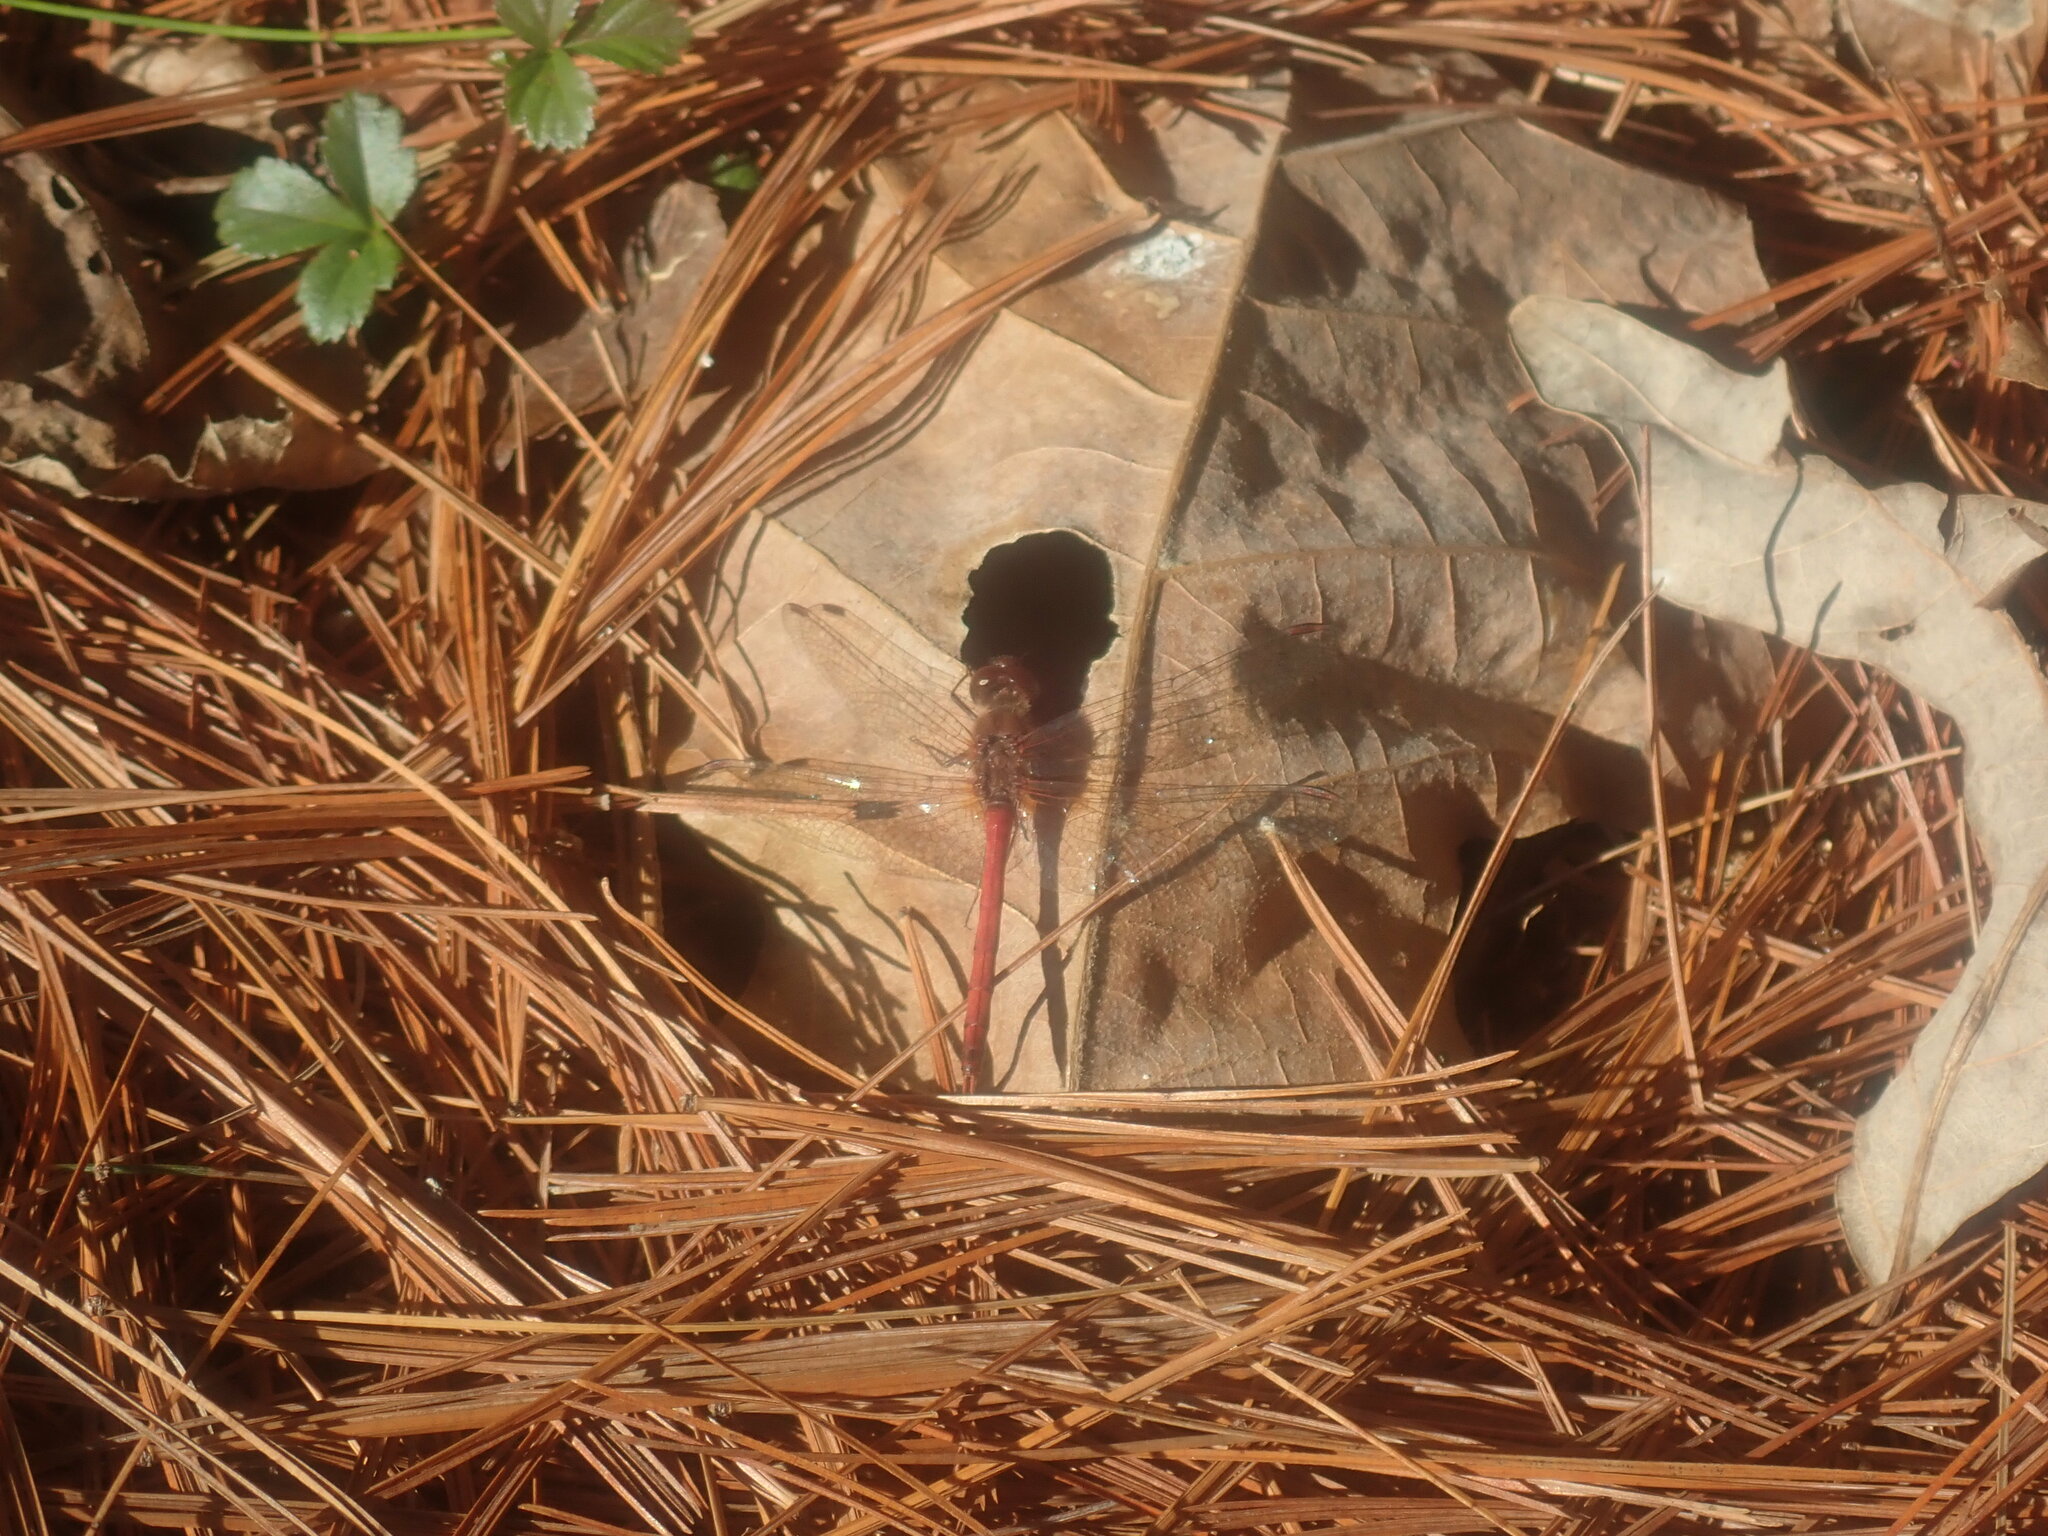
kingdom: Animalia
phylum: Arthropoda
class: Insecta
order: Odonata
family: Libellulidae
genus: Sympetrum
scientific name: Sympetrum vicinum
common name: Autumn meadowhawk
